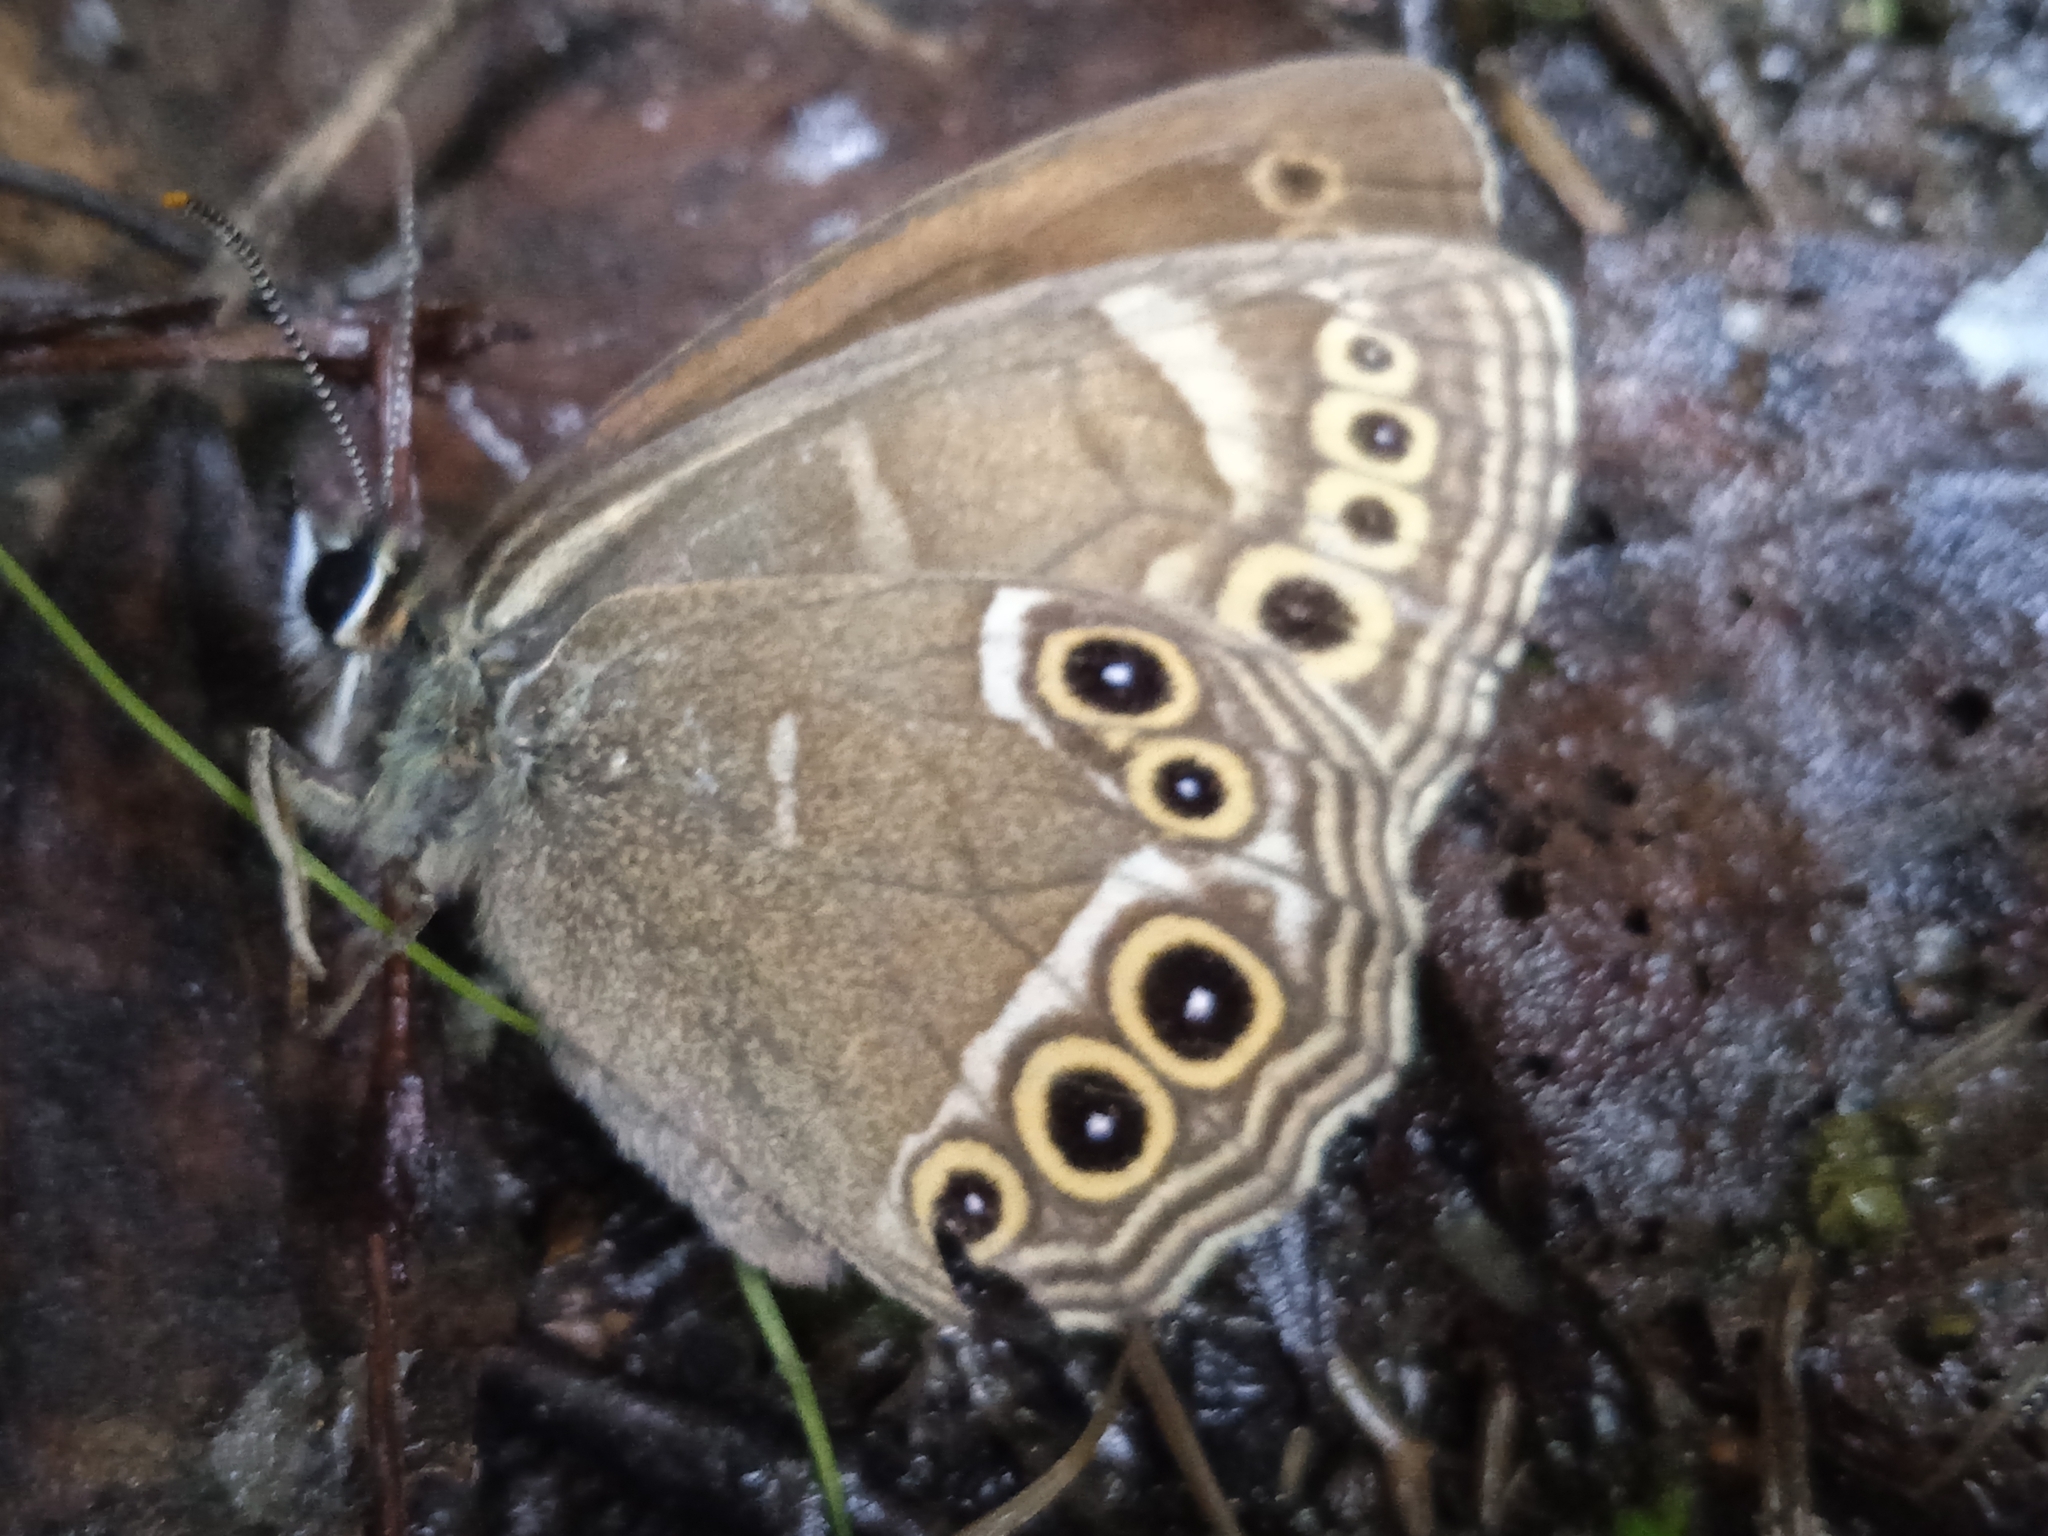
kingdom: Animalia
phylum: Arthropoda
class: Insecta
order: Lepidoptera
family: Nymphalidae
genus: Pararge
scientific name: Pararge Lopinga achine
